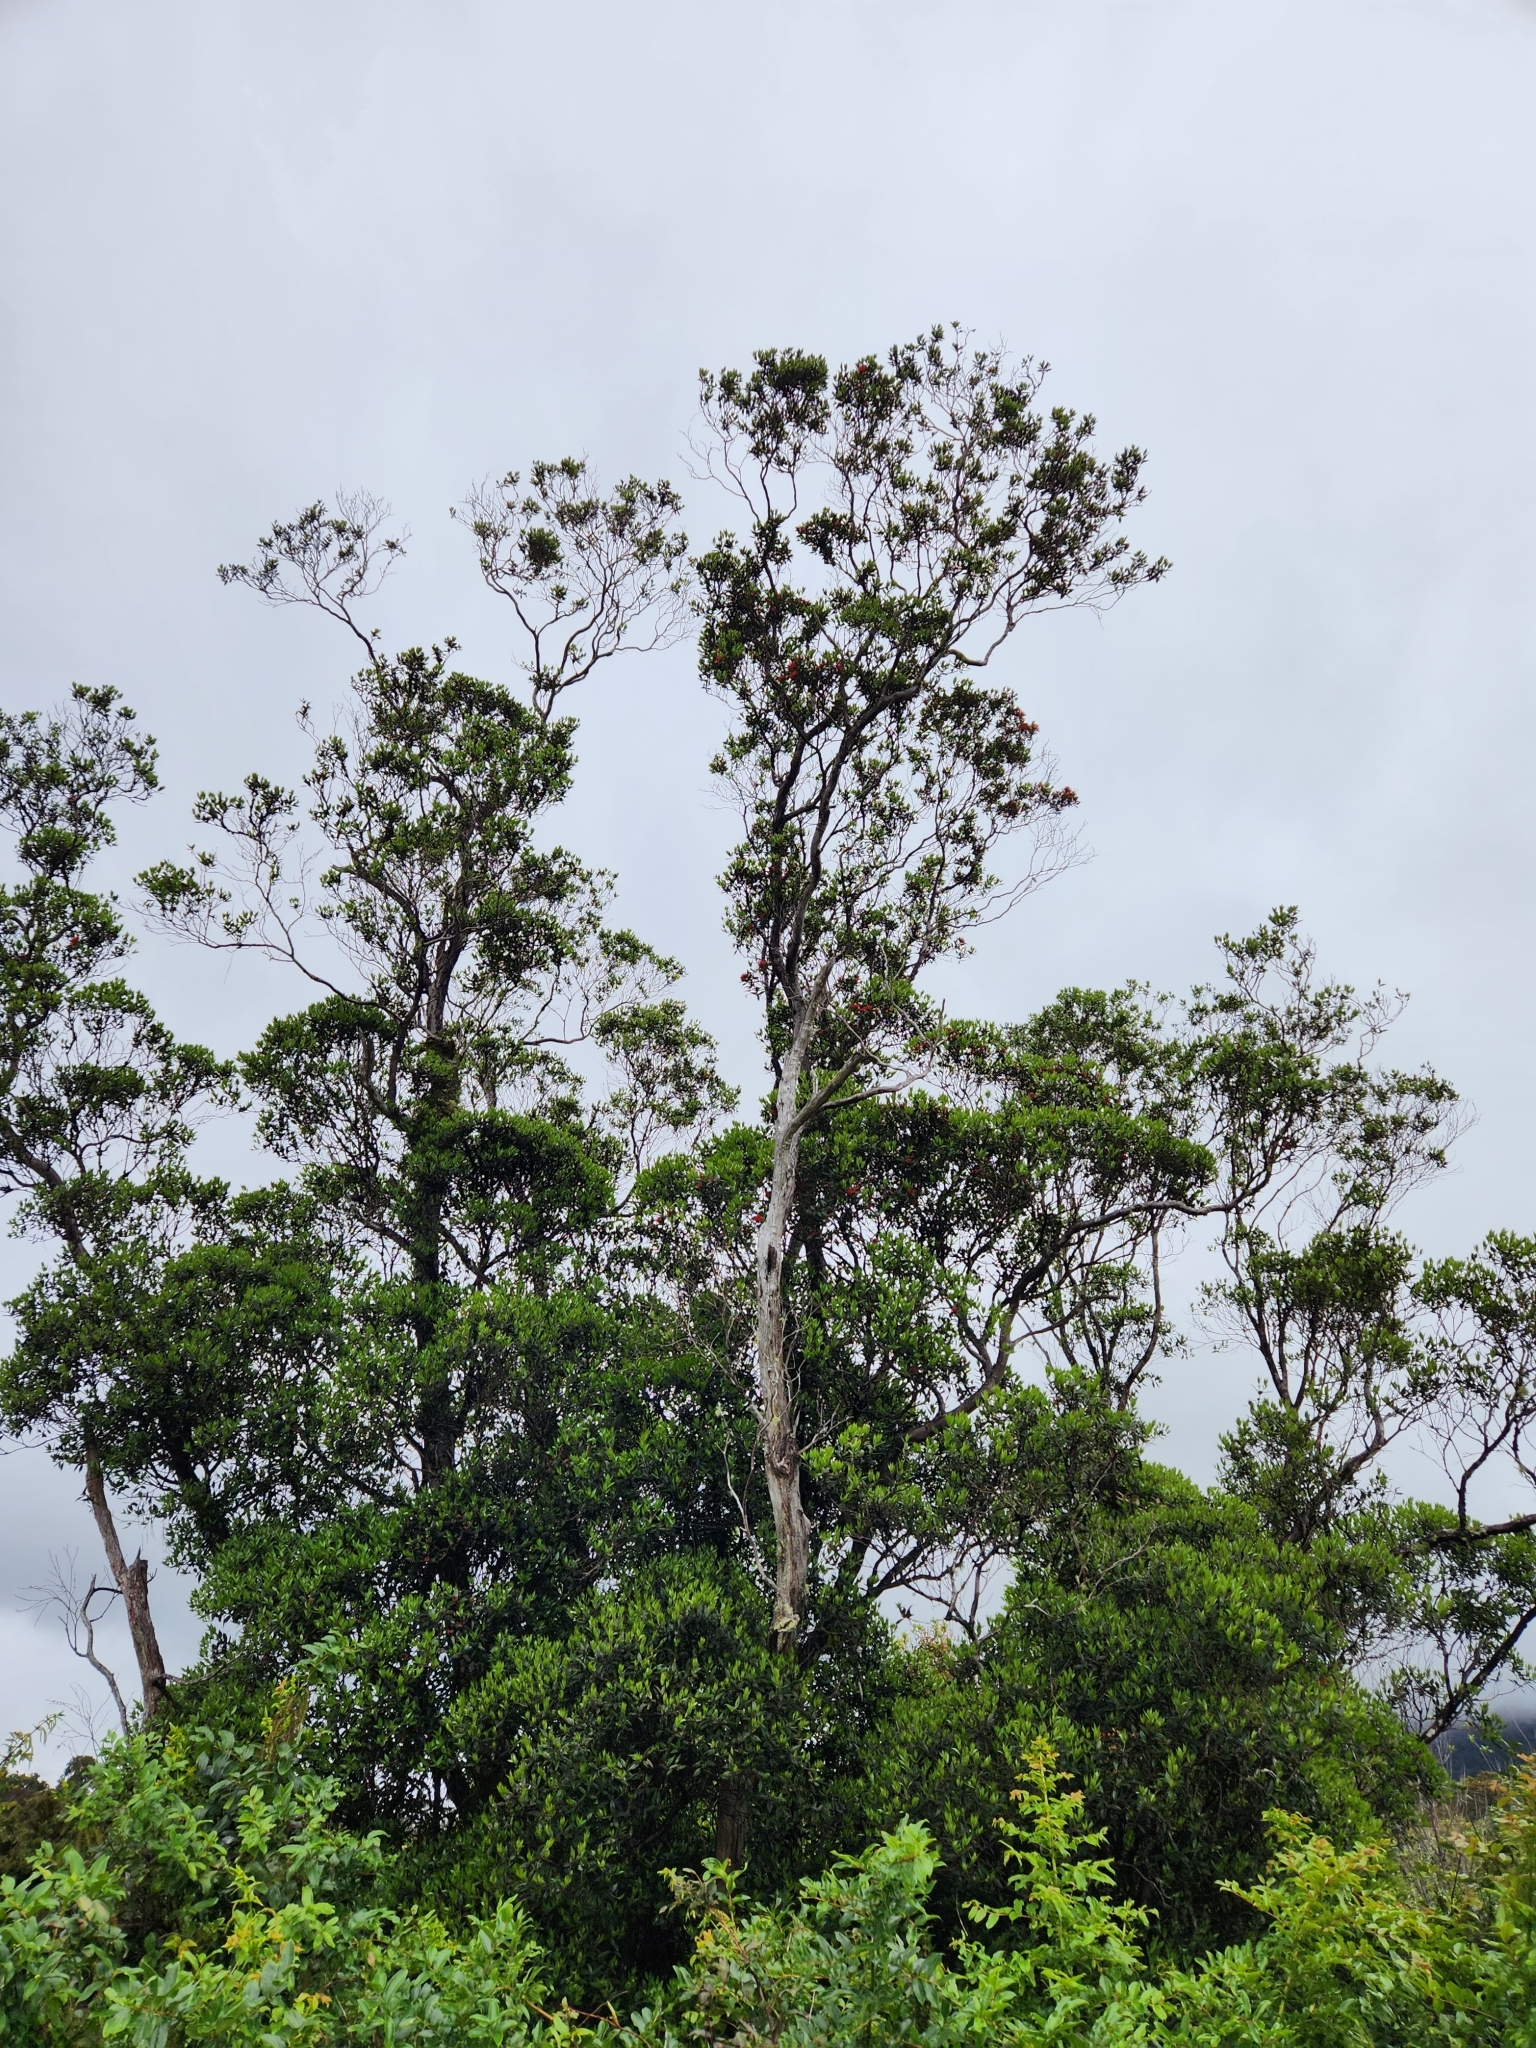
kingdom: Plantae
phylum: Tracheophyta
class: Magnoliopsida
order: Myrtales
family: Myrtaceae
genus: Metrosideros
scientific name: Metrosideros umbellata
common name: Southern rata
